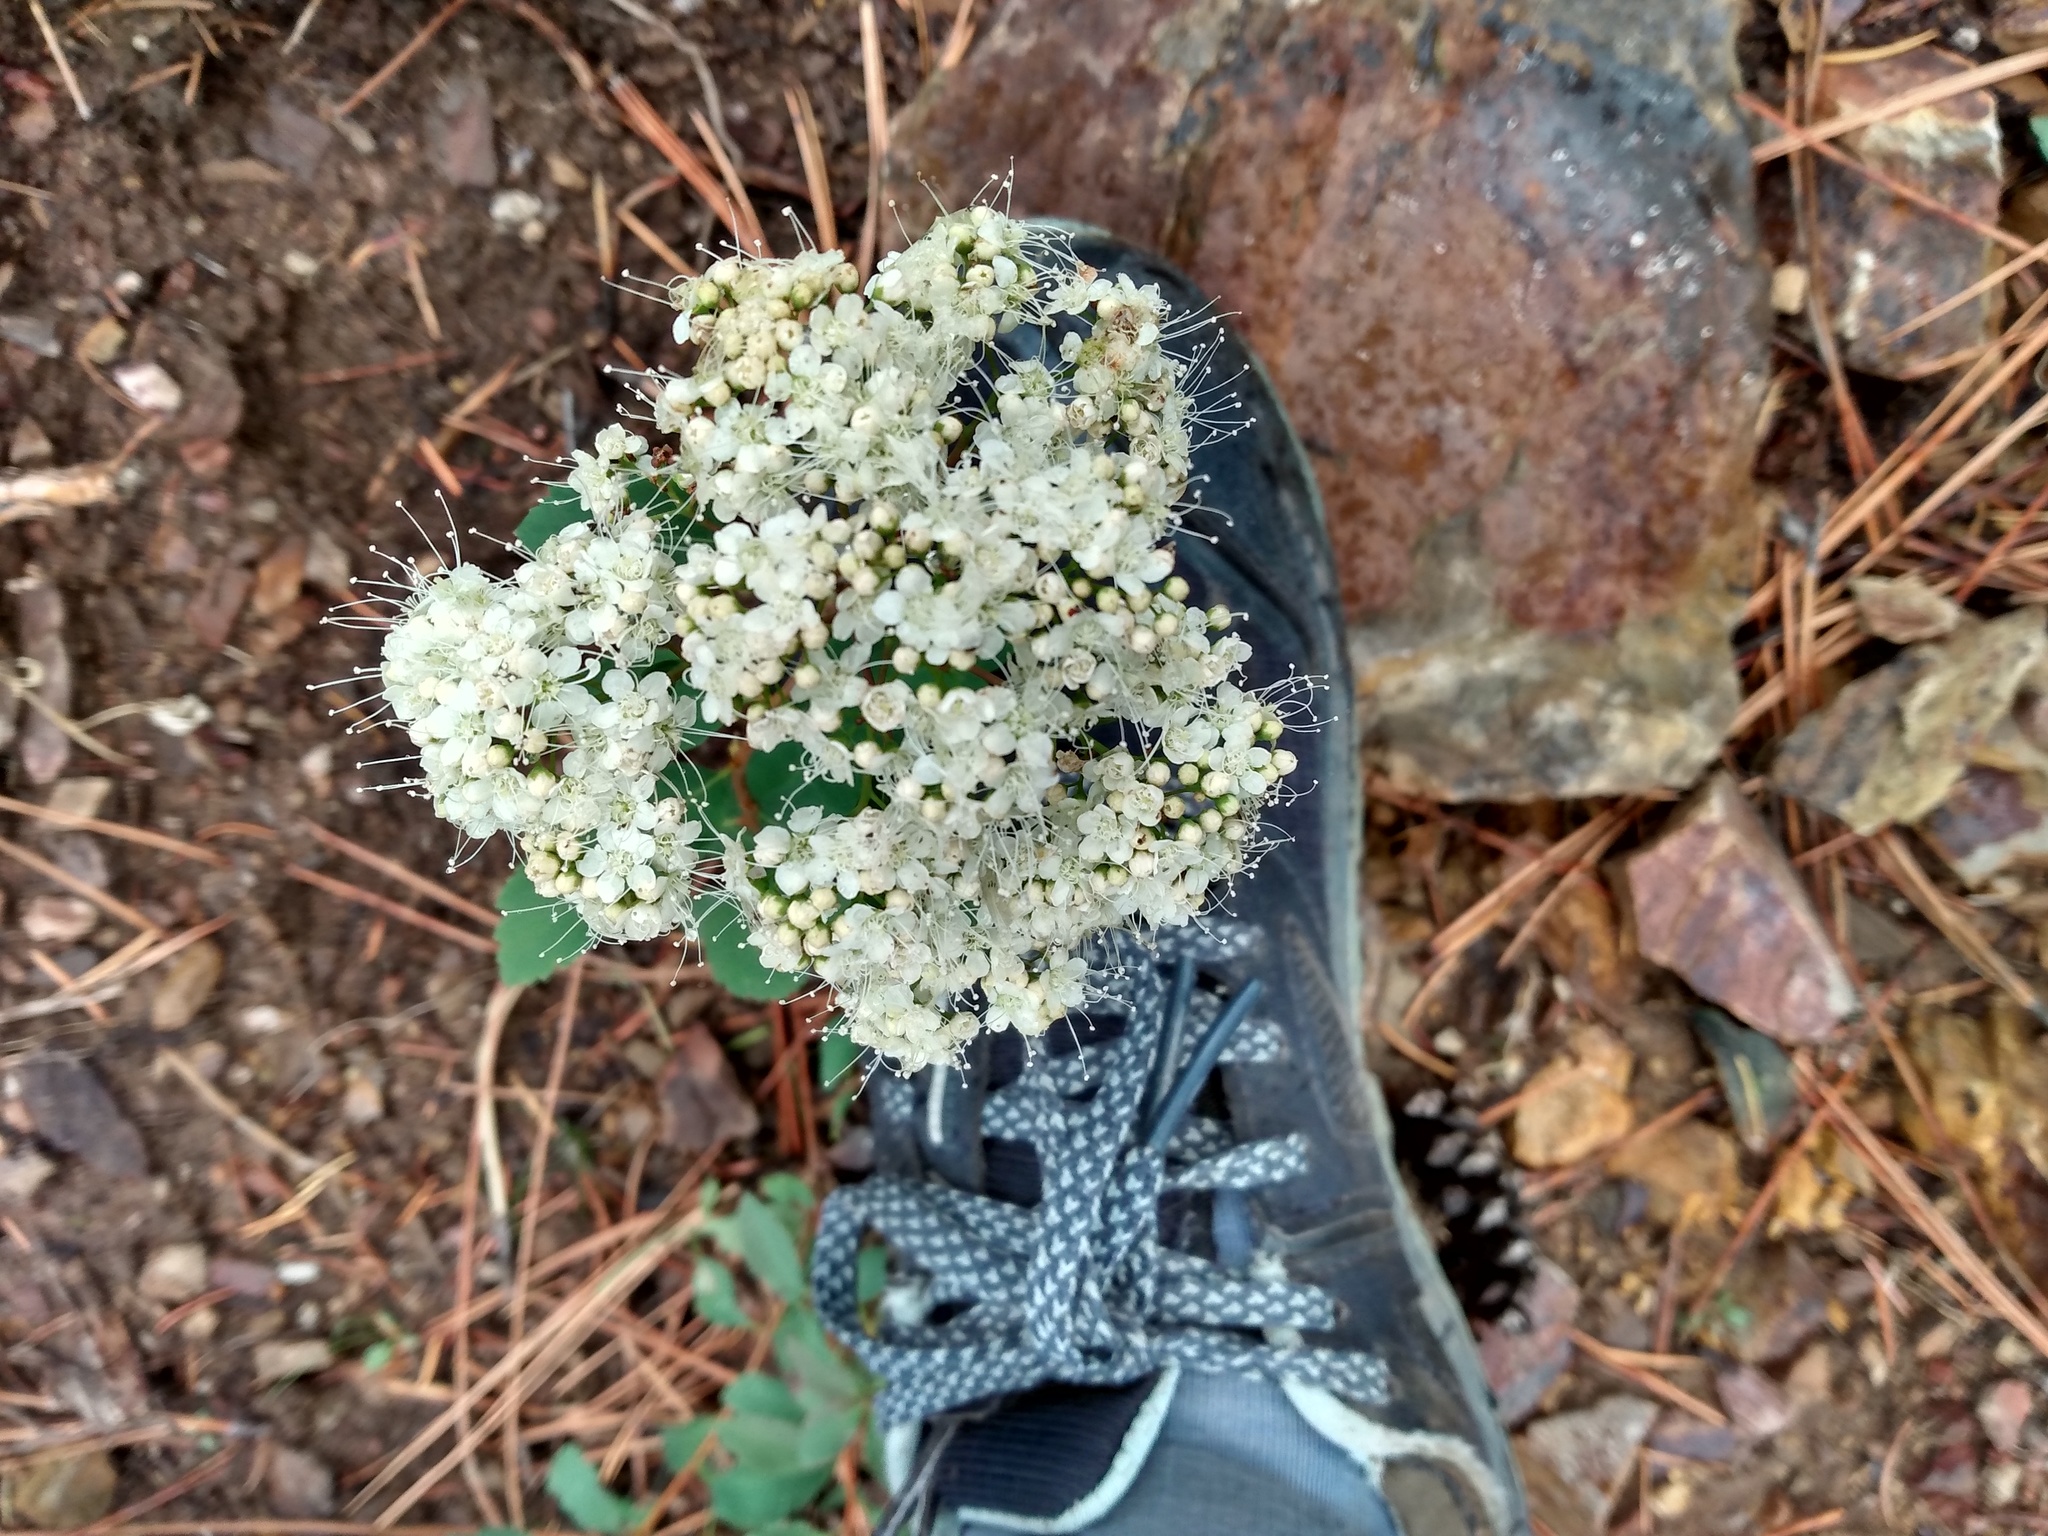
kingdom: Plantae
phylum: Tracheophyta
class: Magnoliopsida
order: Rosales
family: Rosaceae
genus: Spiraea
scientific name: Spiraea lucida
